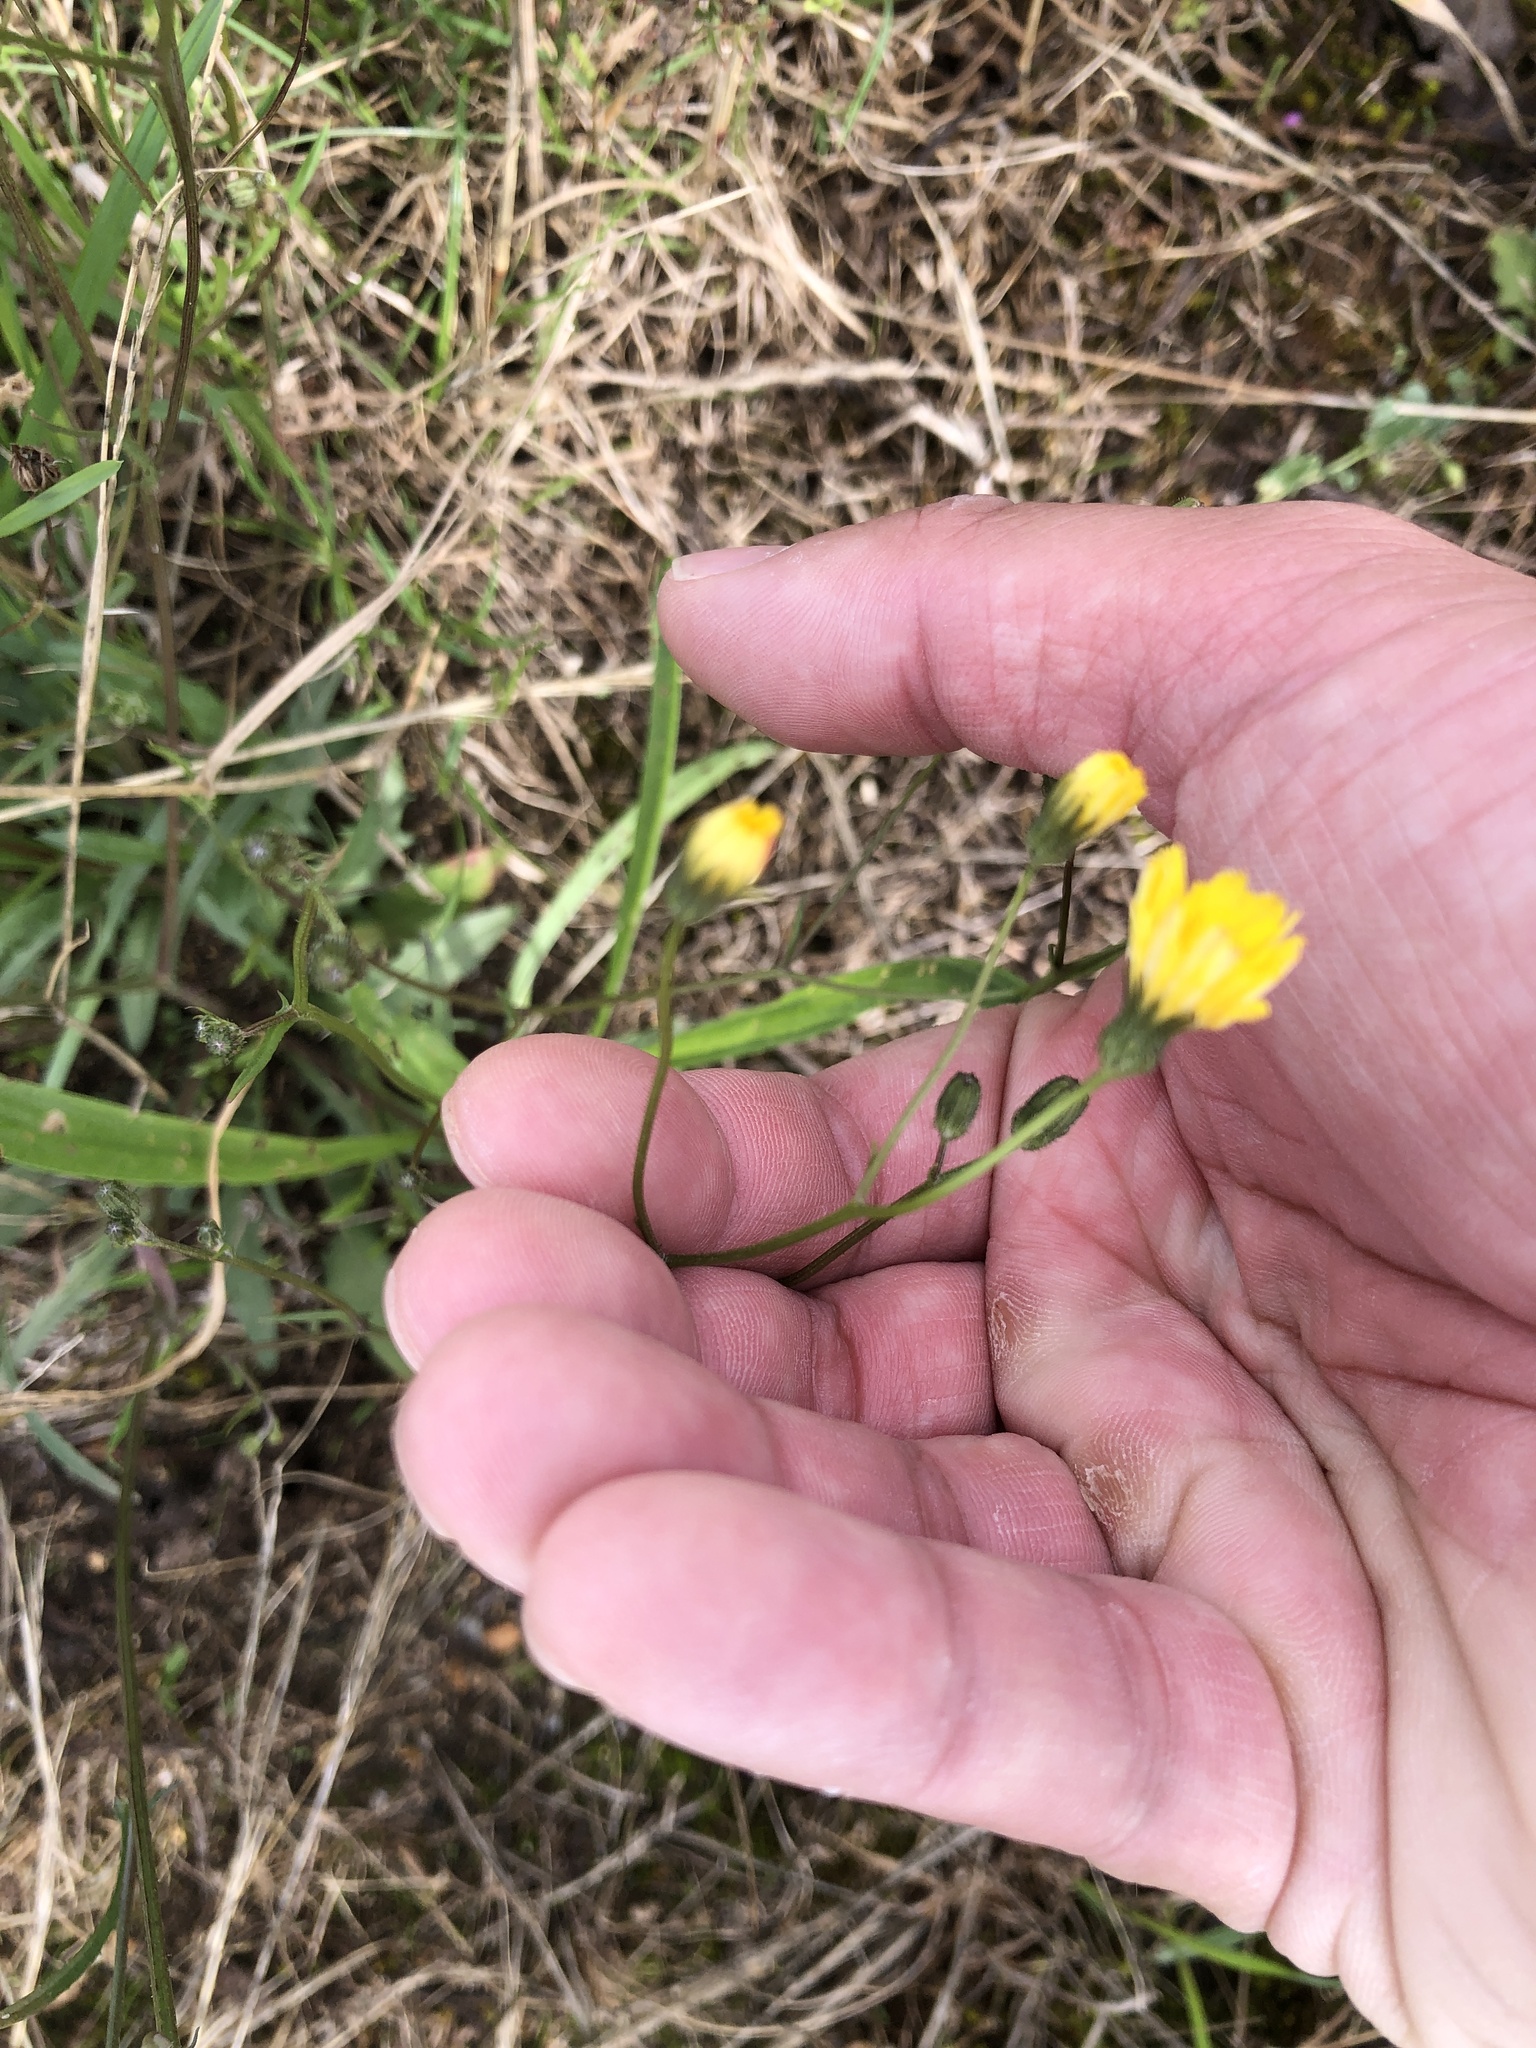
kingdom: Plantae
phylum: Tracheophyta
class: Magnoliopsida
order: Asterales
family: Asteraceae
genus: Crepis
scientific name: Crepis capillaris
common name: Smooth hawksbeard
